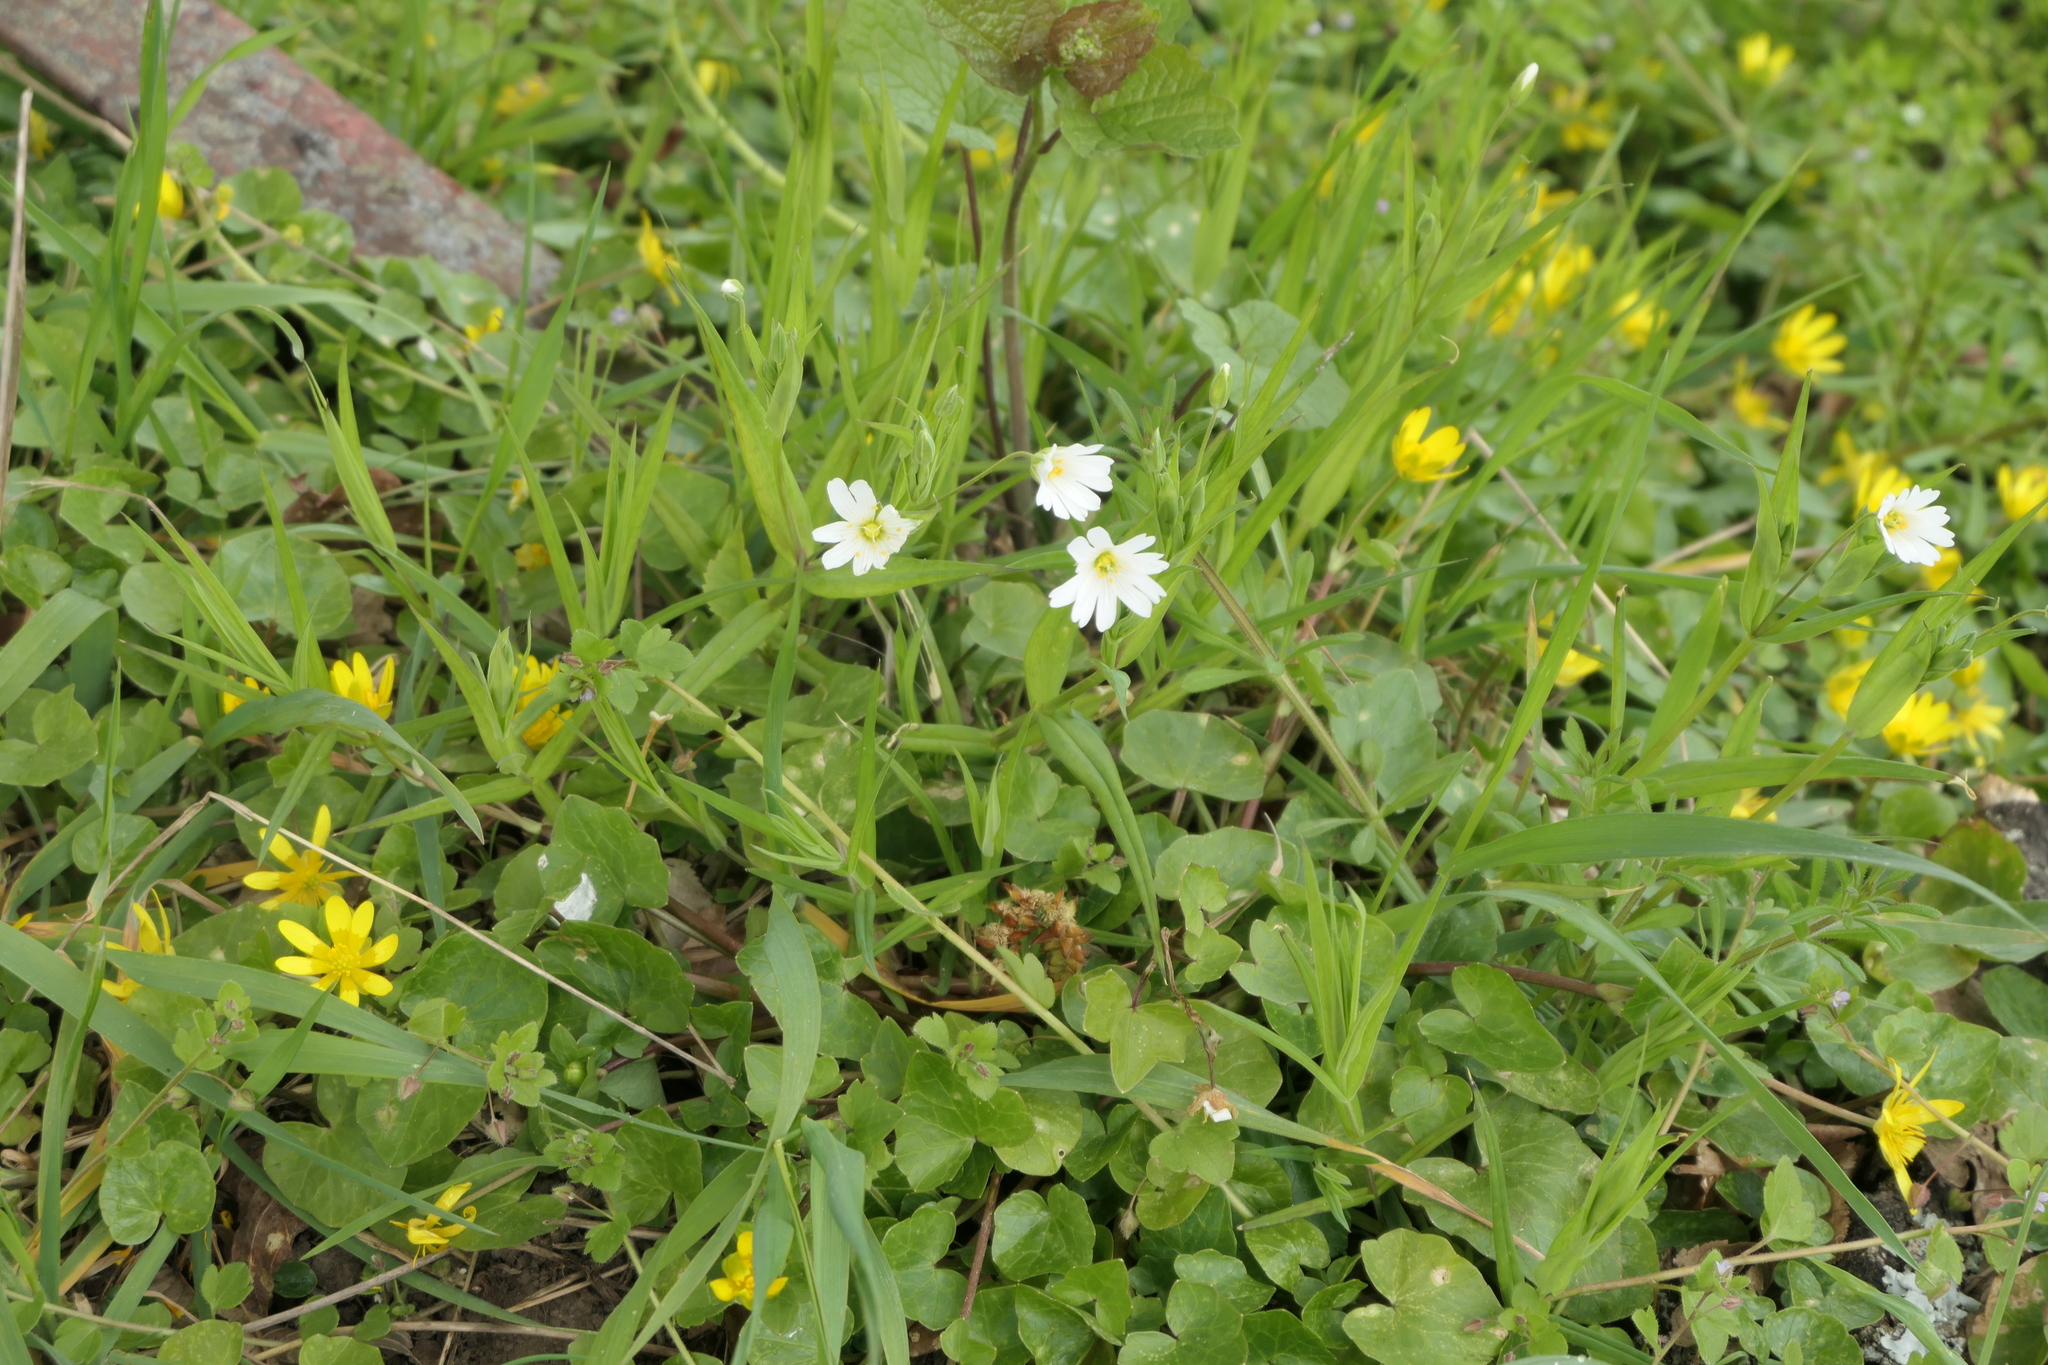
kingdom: Plantae
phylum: Tracheophyta
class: Magnoliopsida
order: Caryophyllales
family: Caryophyllaceae
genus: Rabelera
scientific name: Rabelera holostea
